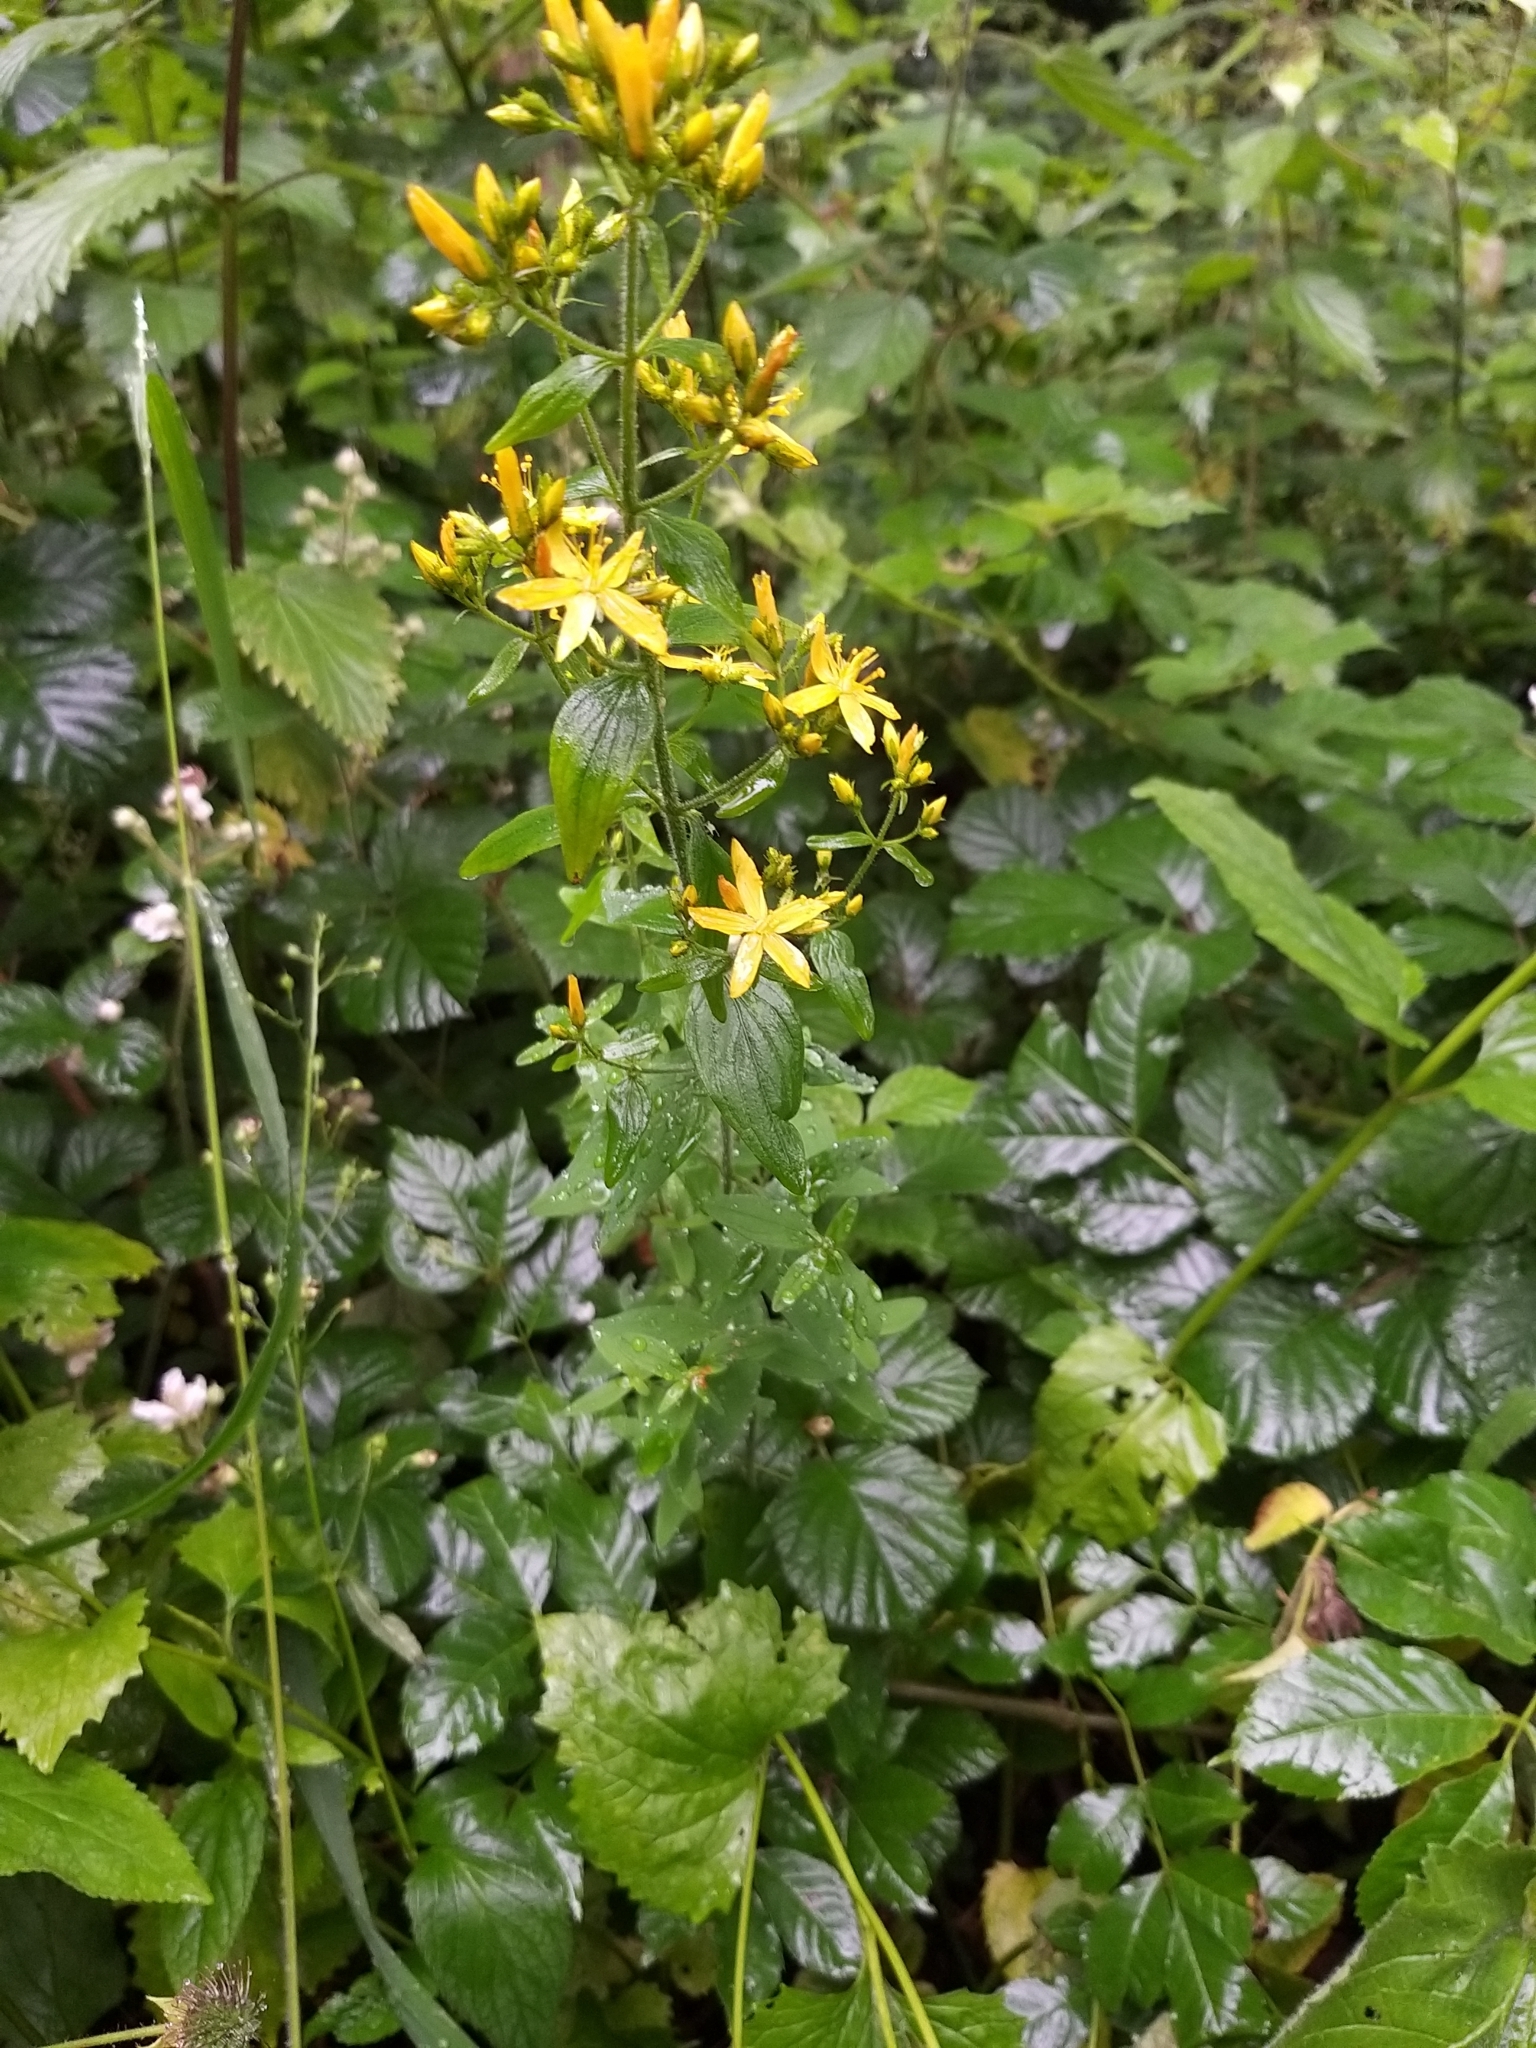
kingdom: Plantae
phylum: Tracheophyta
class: Magnoliopsida
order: Malpighiales
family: Hypericaceae
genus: Hypericum
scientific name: Hypericum hirsutum
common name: Hairy st. john's-wort
